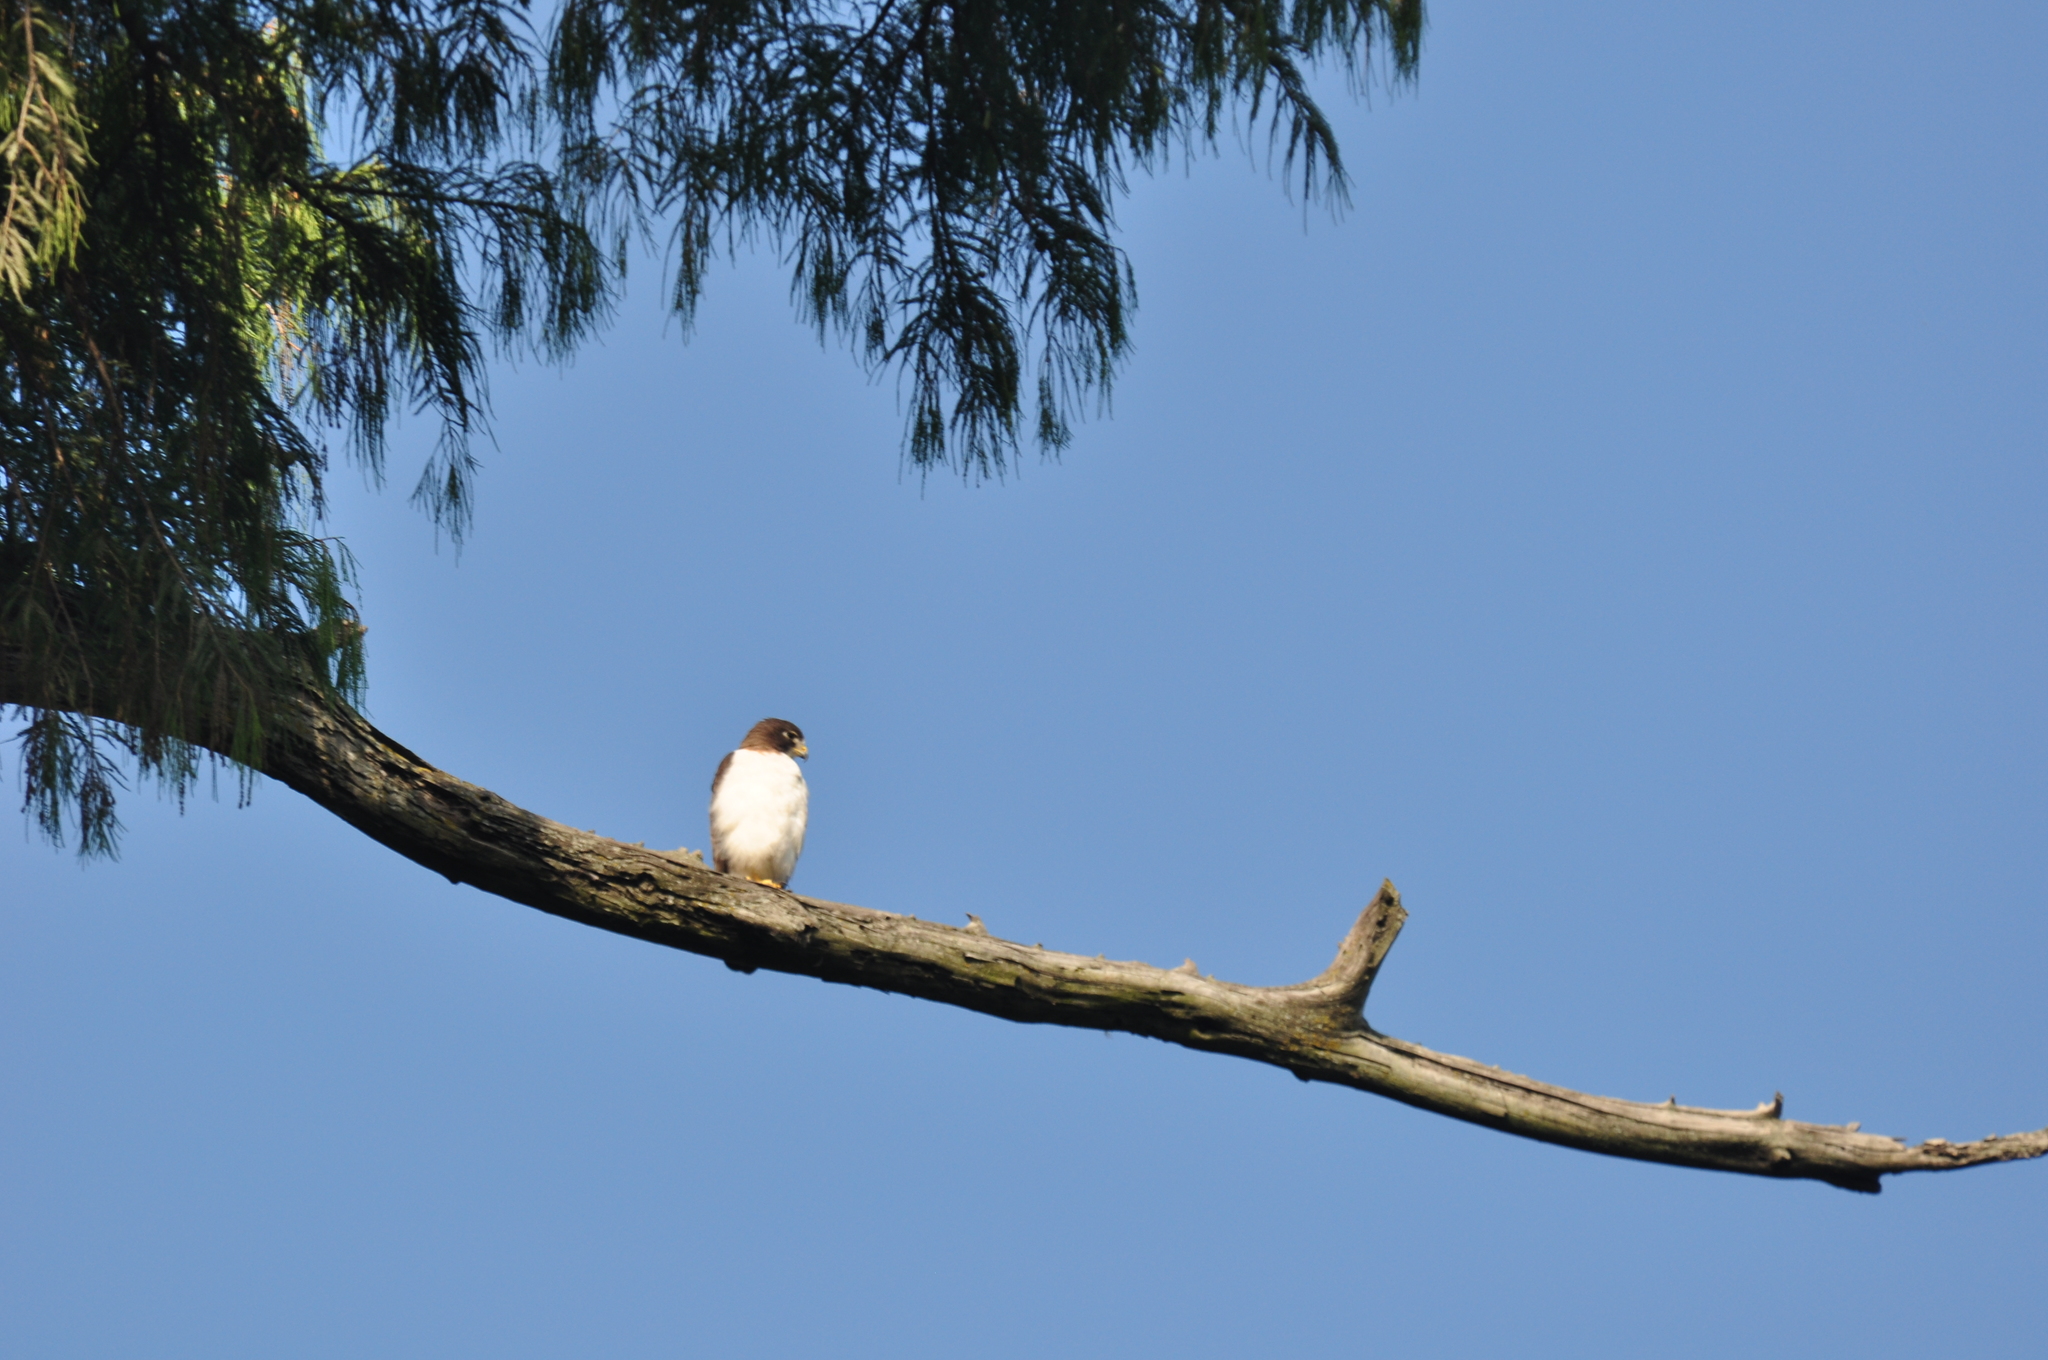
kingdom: Animalia
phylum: Chordata
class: Aves
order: Accipitriformes
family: Accipitridae
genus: Buteo
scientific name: Buteo brachyurus
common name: Short-tailed hawk
